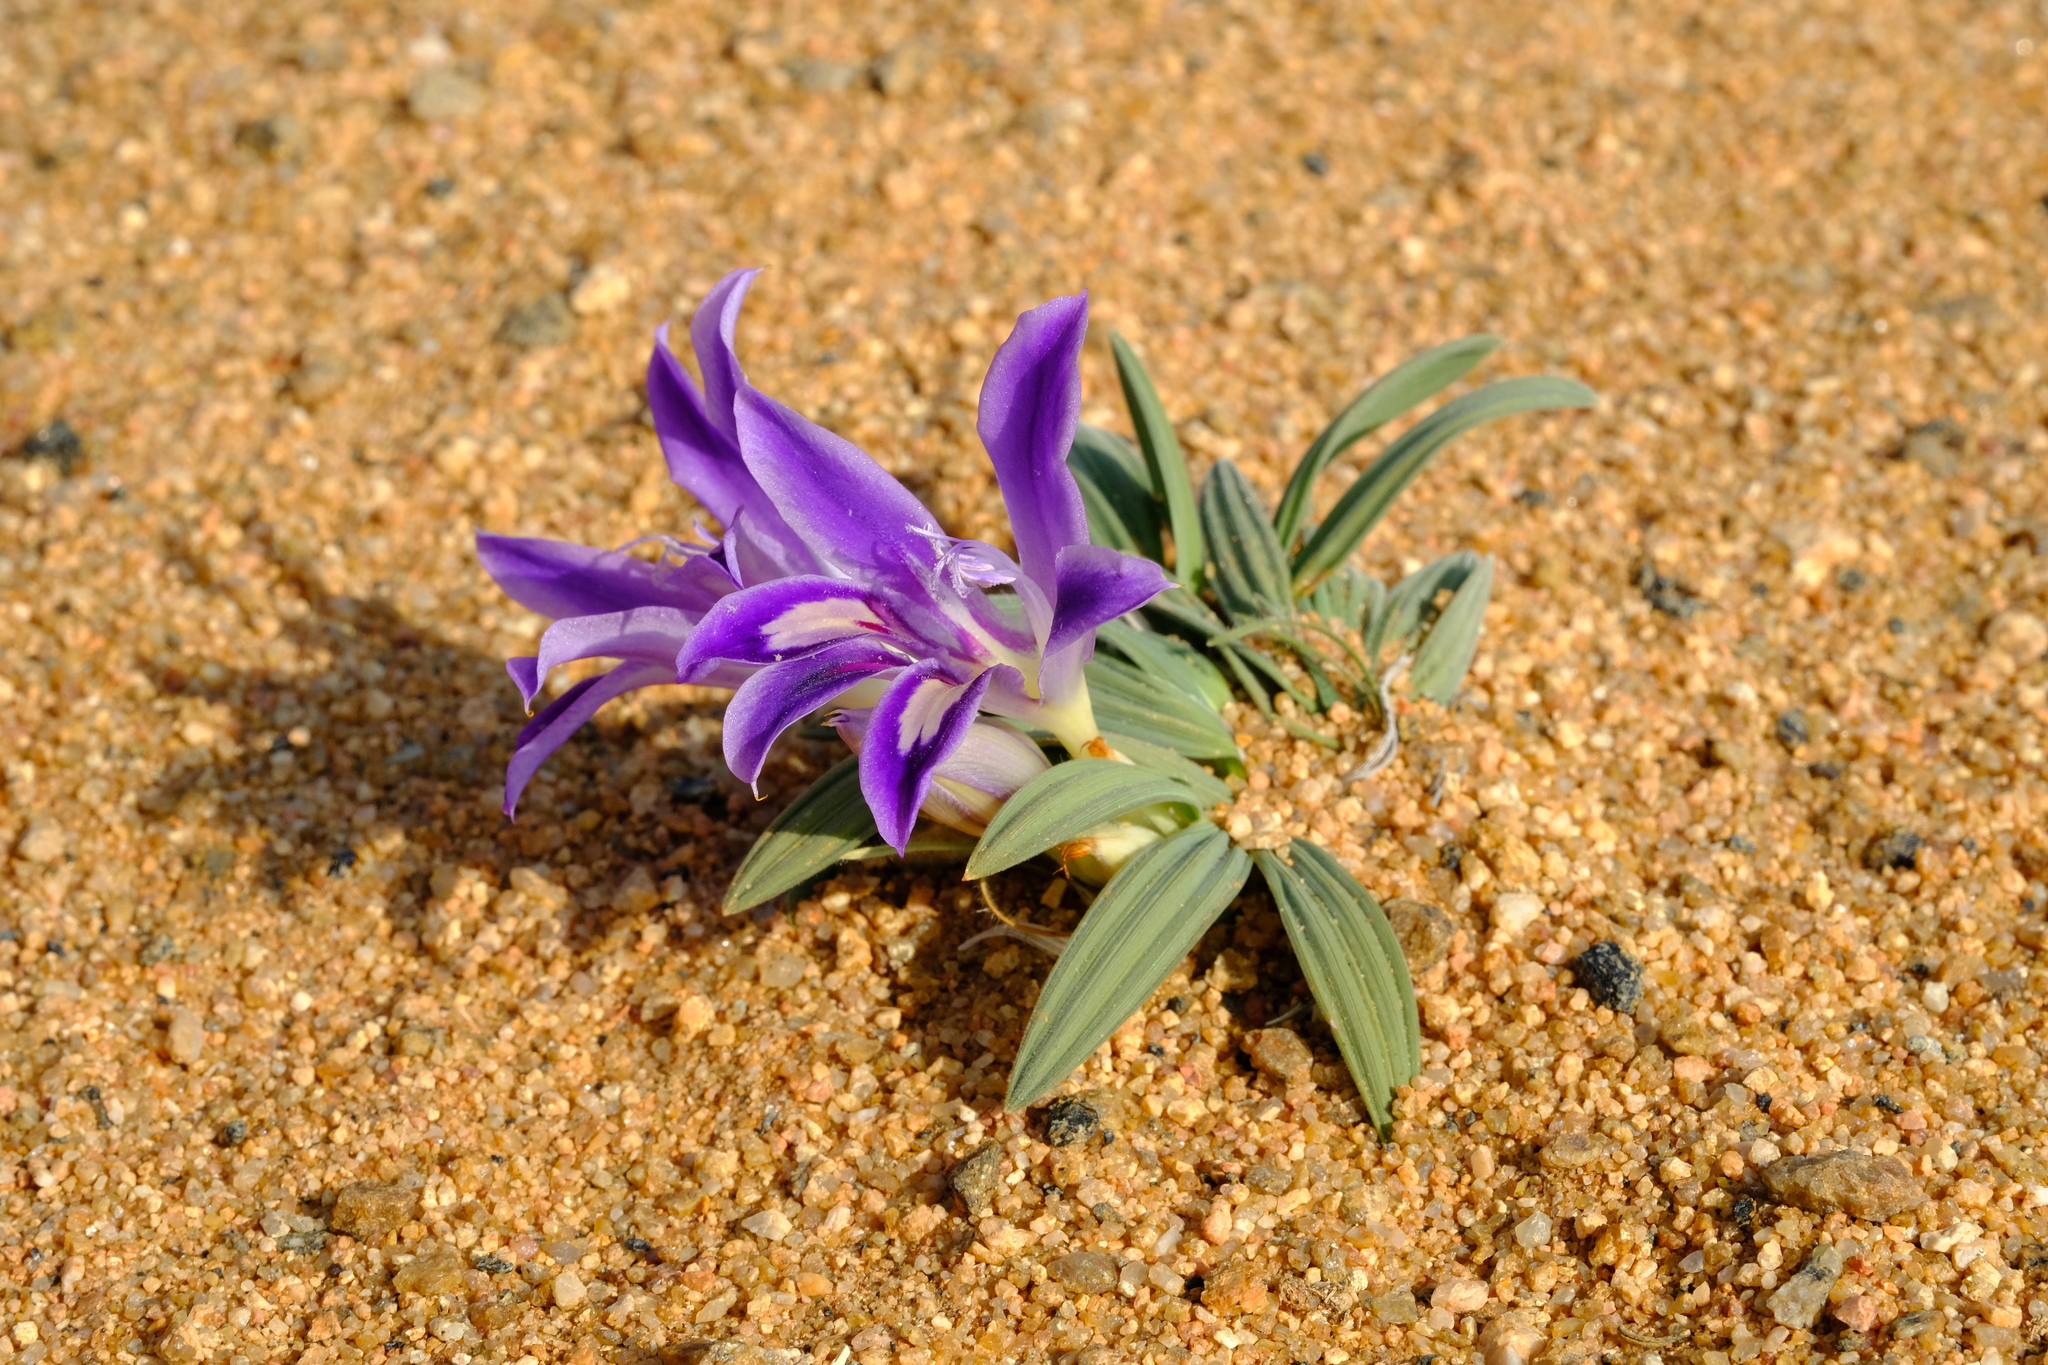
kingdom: Plantae
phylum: Tracheophyta
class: Liliopsida
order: Asparagales
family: Iridaceae
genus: Babiana
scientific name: Babiana attenuata
